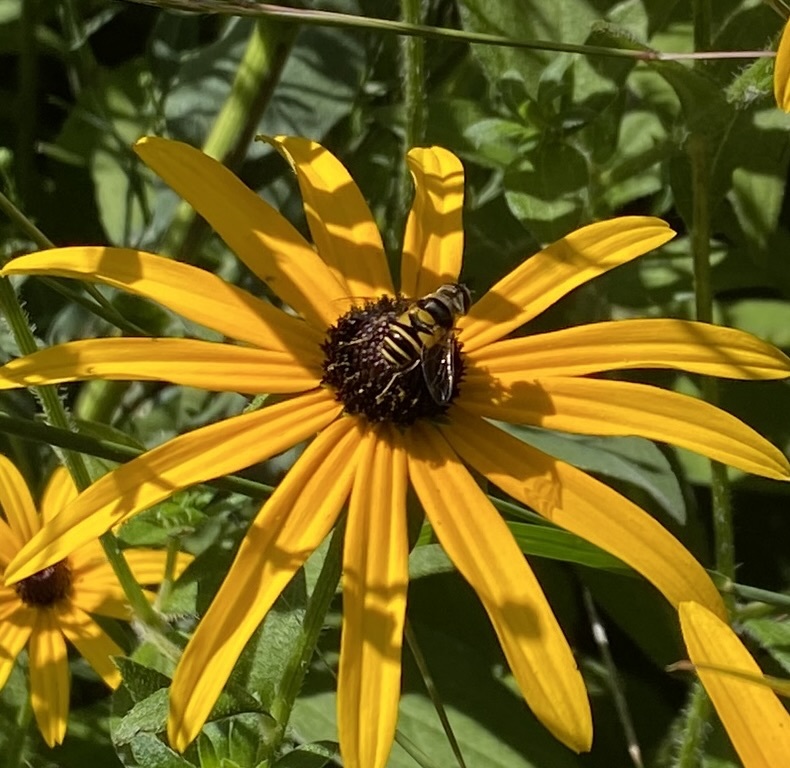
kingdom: Animalia
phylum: Arthropoda
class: Insecta
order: Diptera
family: Syrphidae
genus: Eristalis
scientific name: Eristalis transversa
